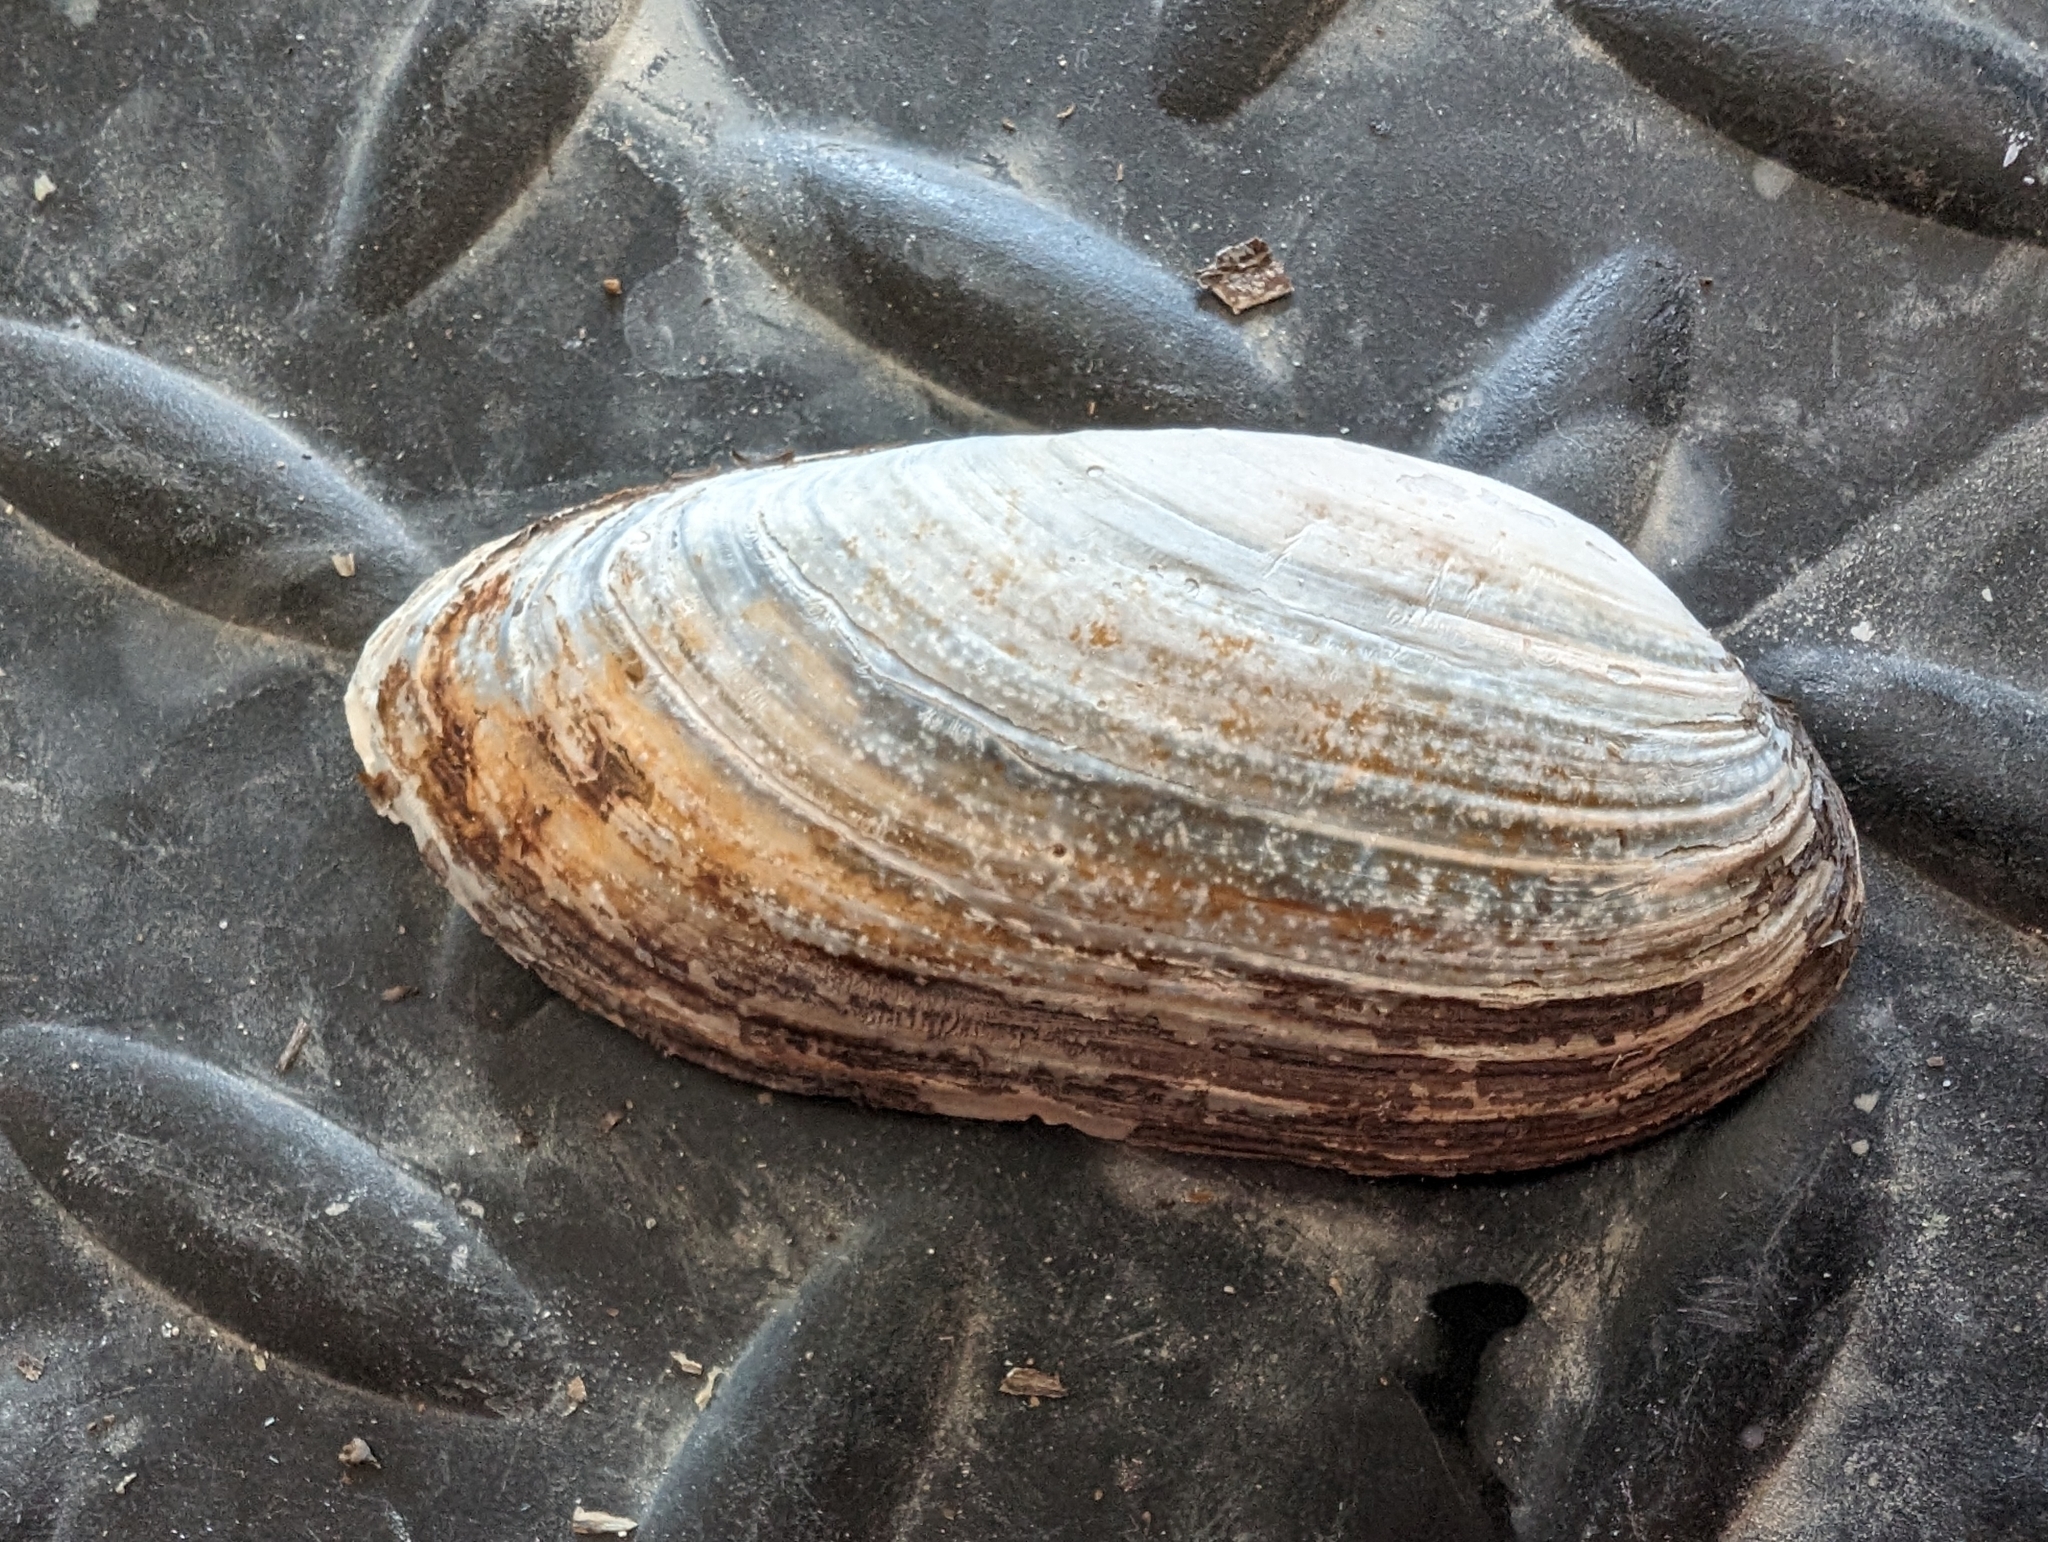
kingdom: Animalia
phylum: Mollusca
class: Bivalvia
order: Unionida
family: Unionidae
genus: Lampsilis
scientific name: Lampsilis teres
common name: Yellow sandshell
